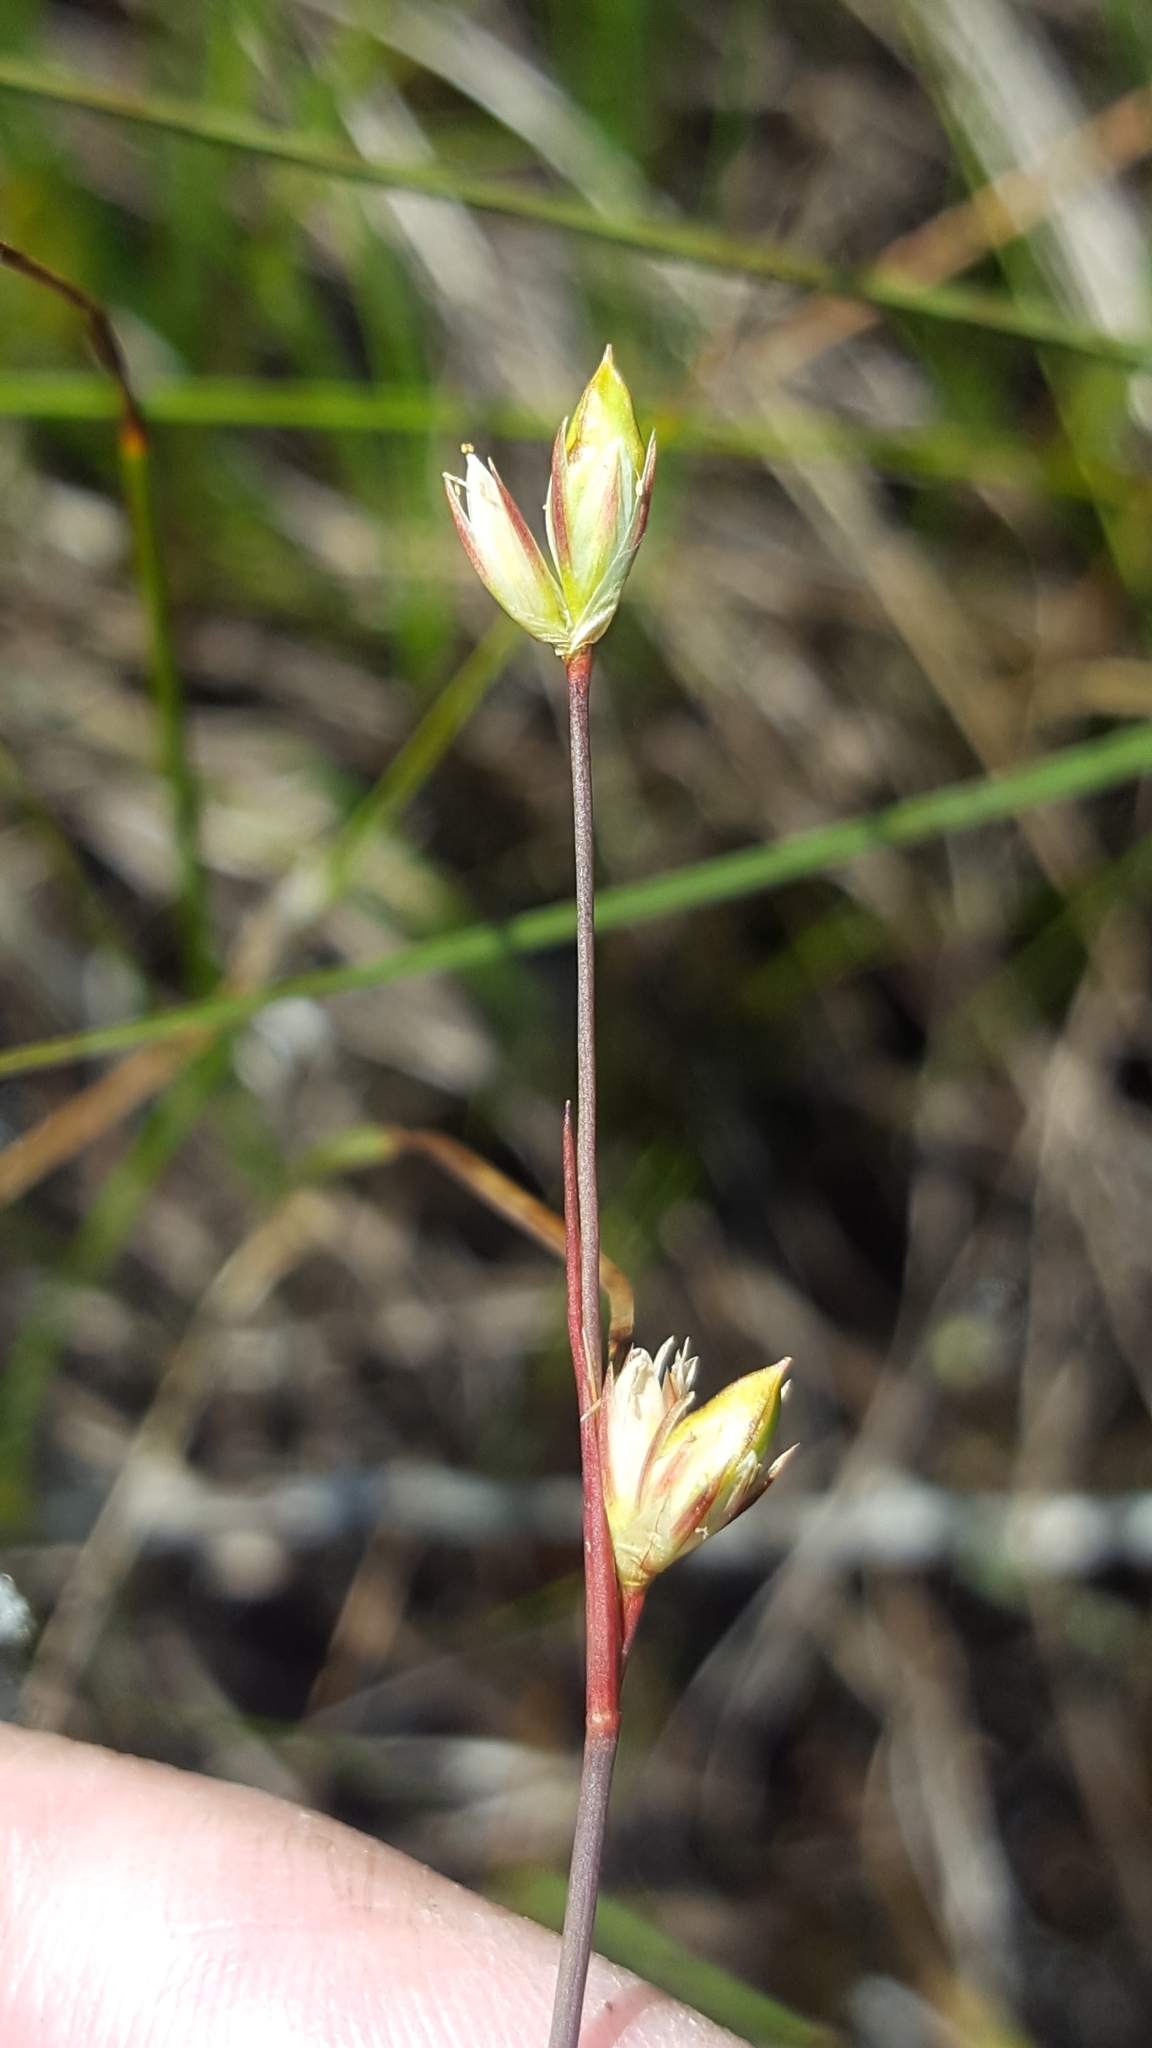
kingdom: Plantae
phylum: Tracheophyta
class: Liliopsida
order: Poales
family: Juncaceae
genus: Juncus
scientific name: Juncus stygius
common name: Bog rush
